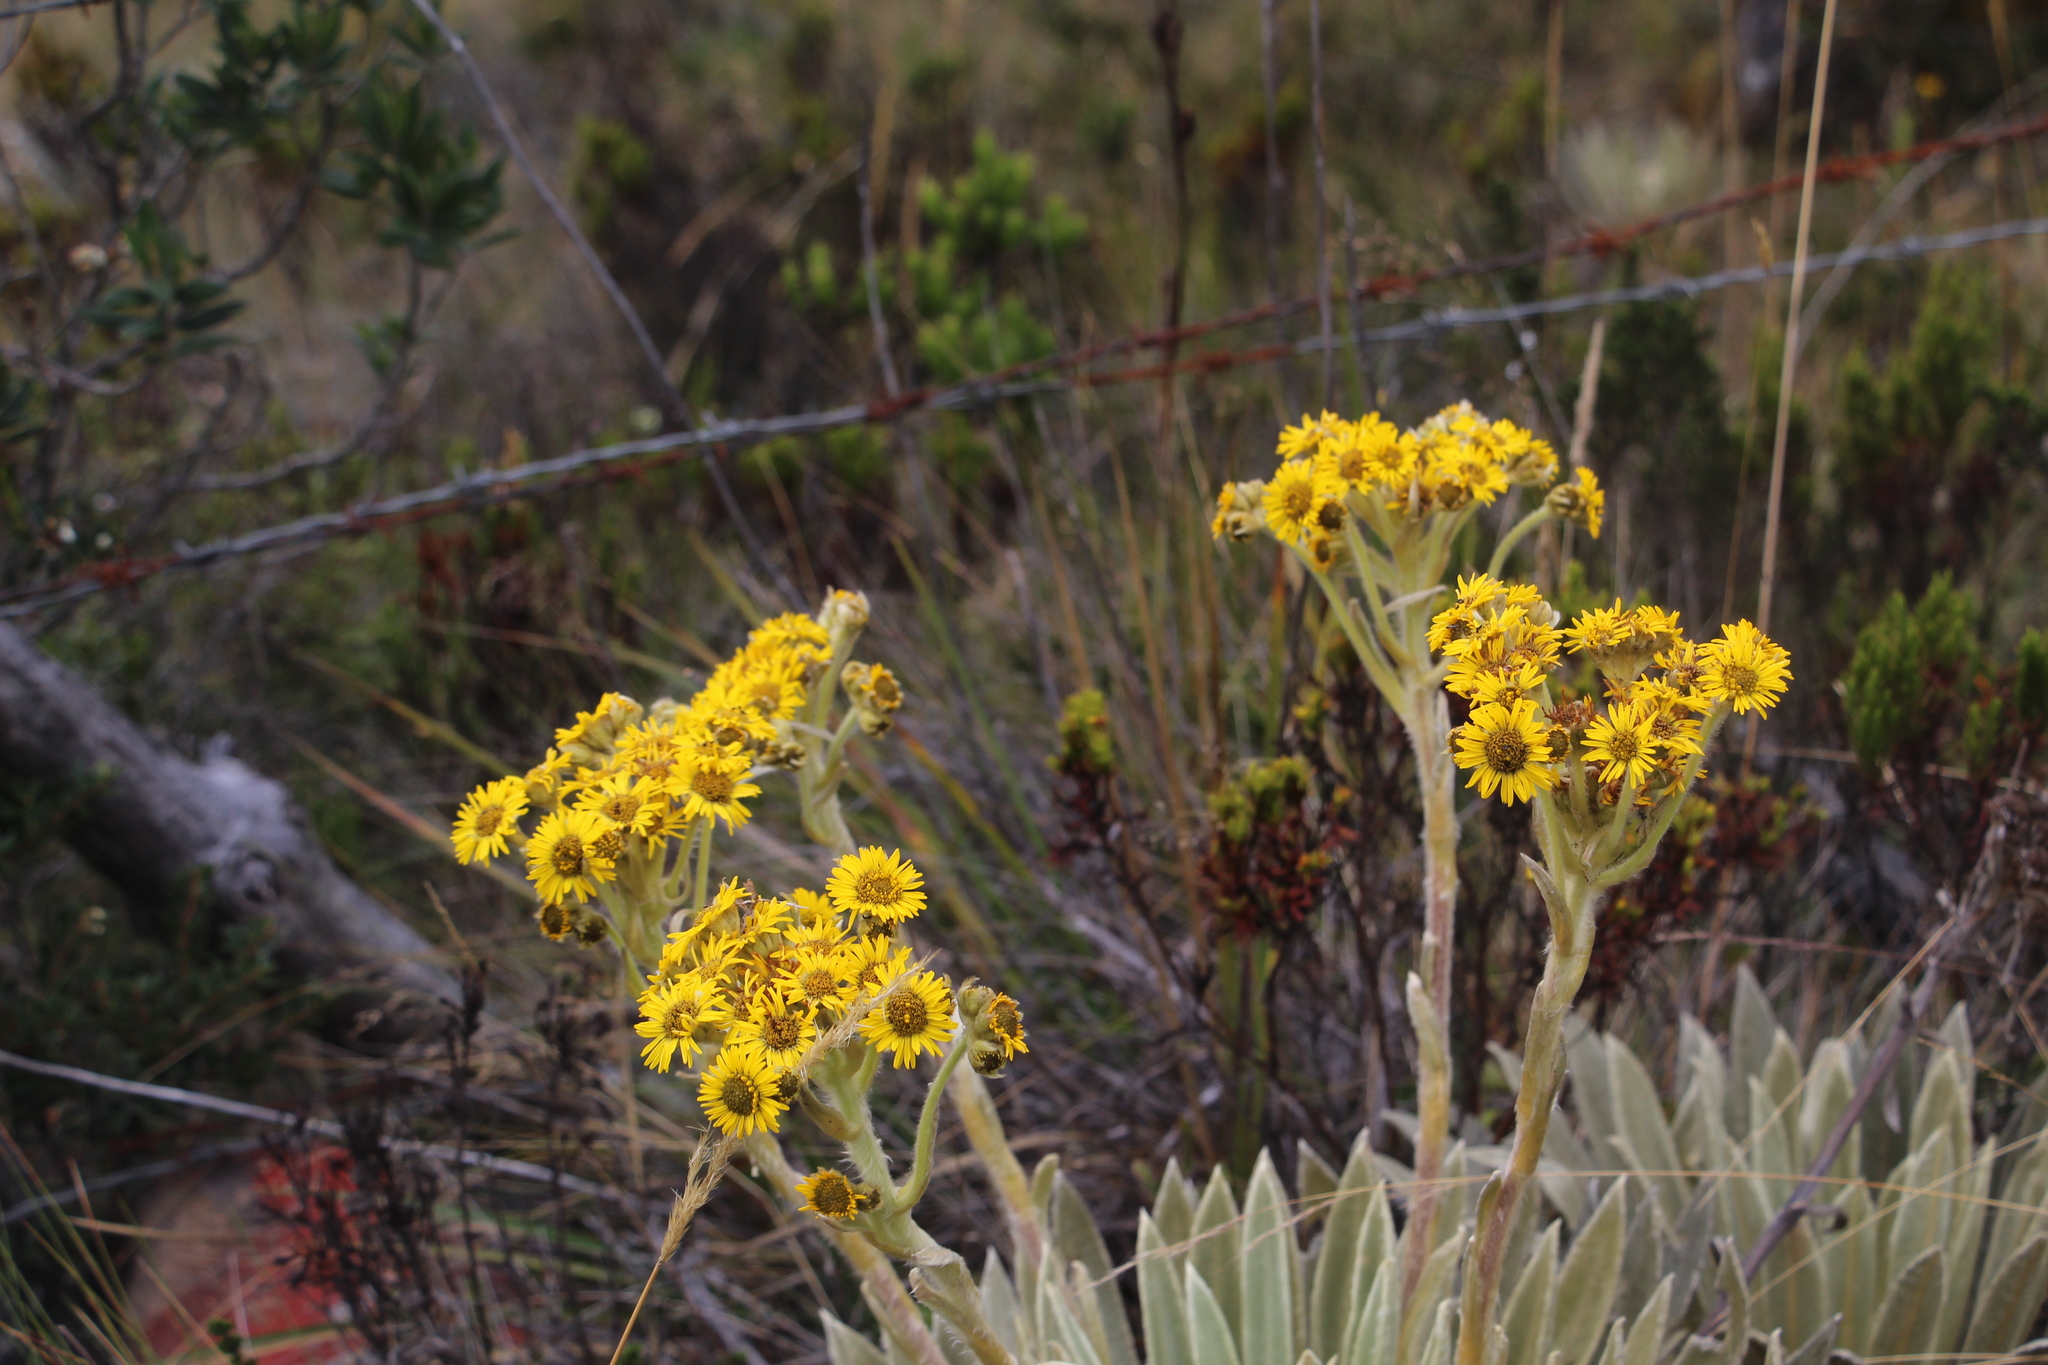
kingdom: Plantae
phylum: Tracheophyta
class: Magnoliopsida
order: Asterales
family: Asteraceae
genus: Espeletia
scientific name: Espeletia muiska
